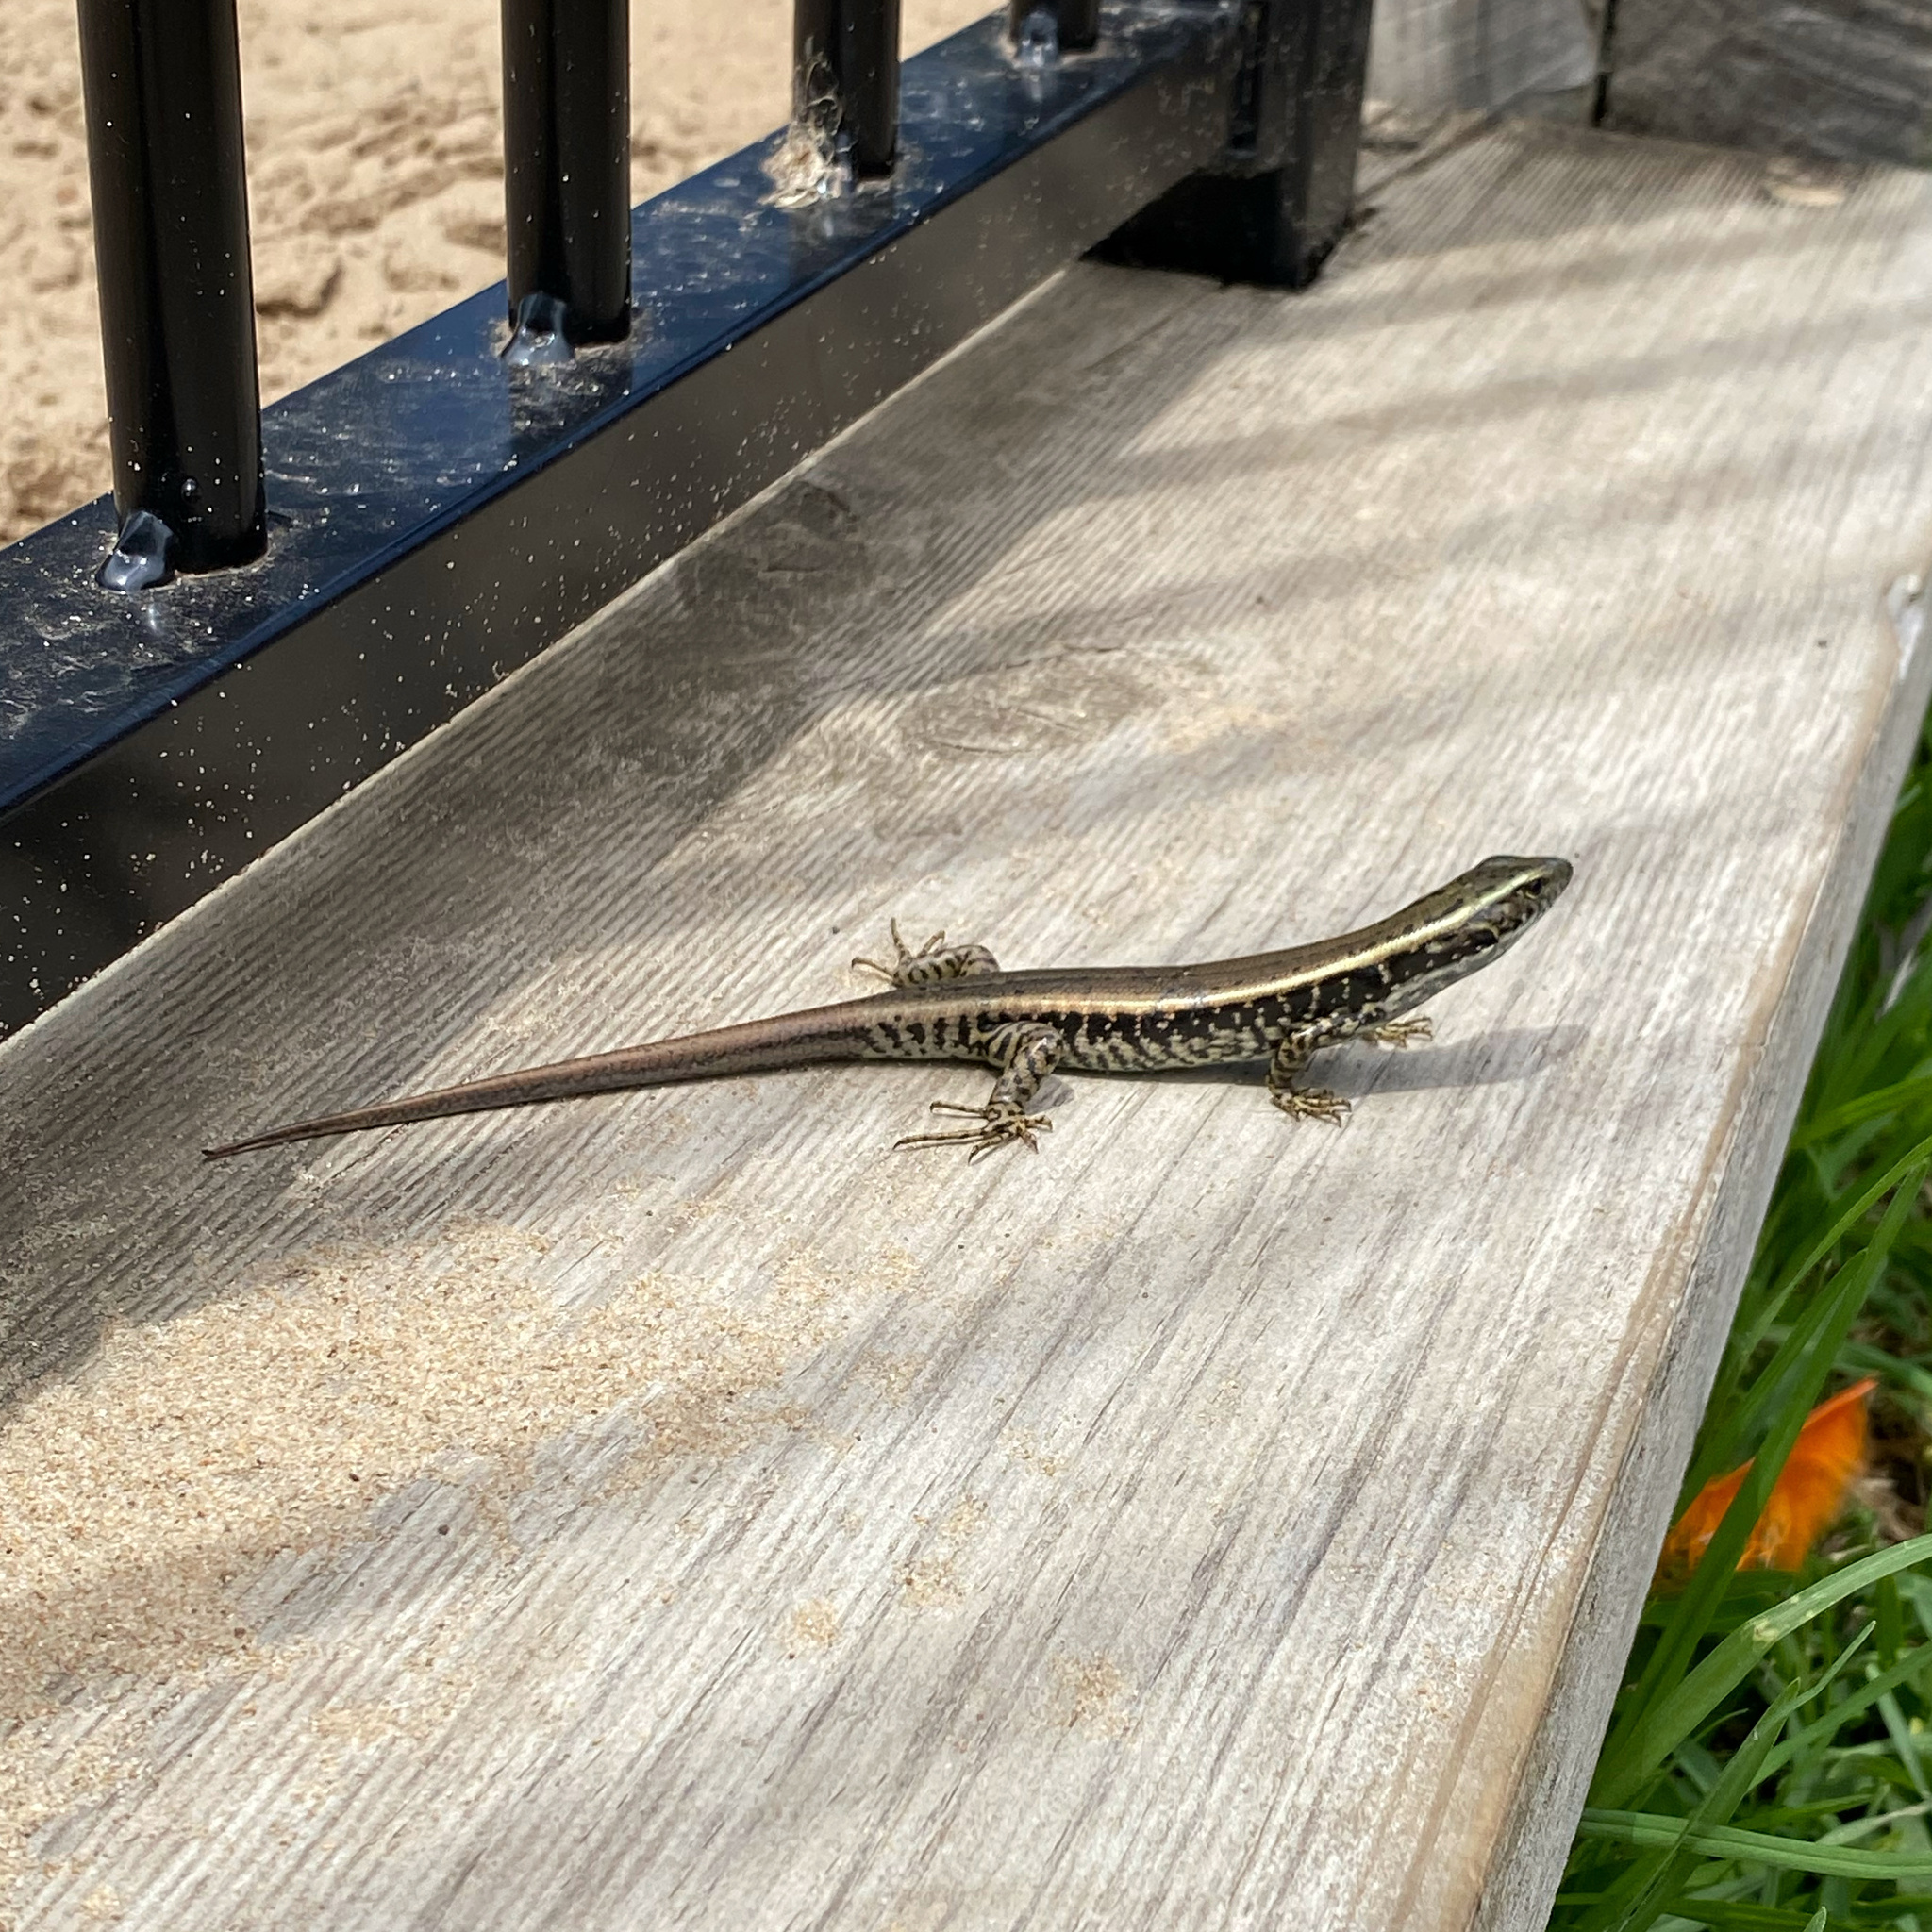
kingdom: Animalia
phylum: Chordata
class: Squamata
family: Scincidae
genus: Eulamprus
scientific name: Eulamprus quoyii
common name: Eastern water skink
